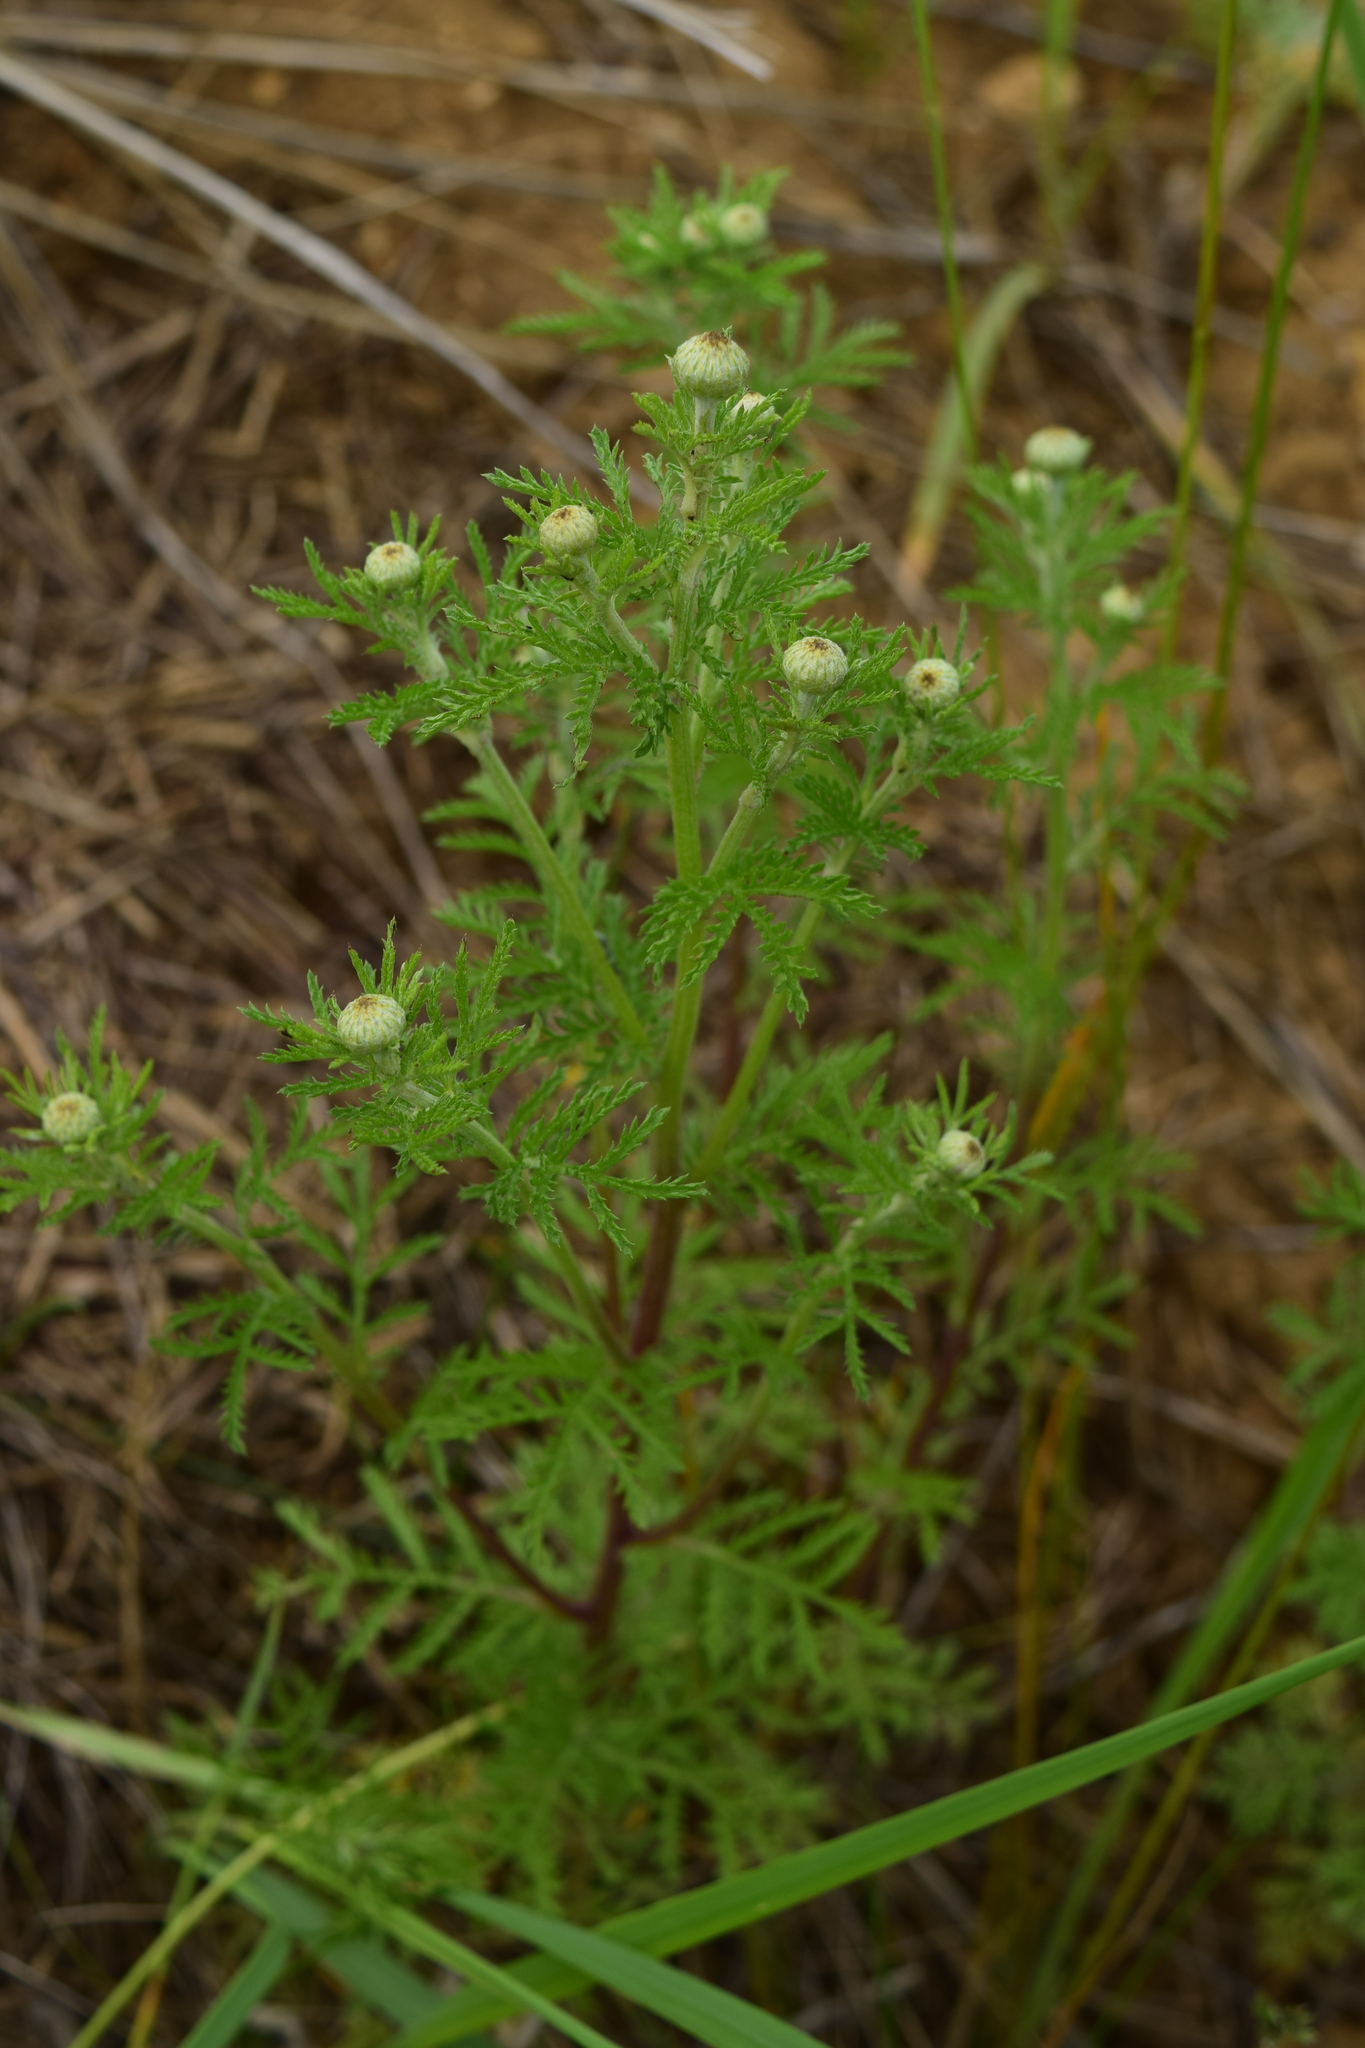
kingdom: Plantae
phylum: Tracheophyta
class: Magnoliopsida
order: Asterales
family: Asteraceae
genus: Cota
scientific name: Cota tinctoria
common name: Golden chamomile
